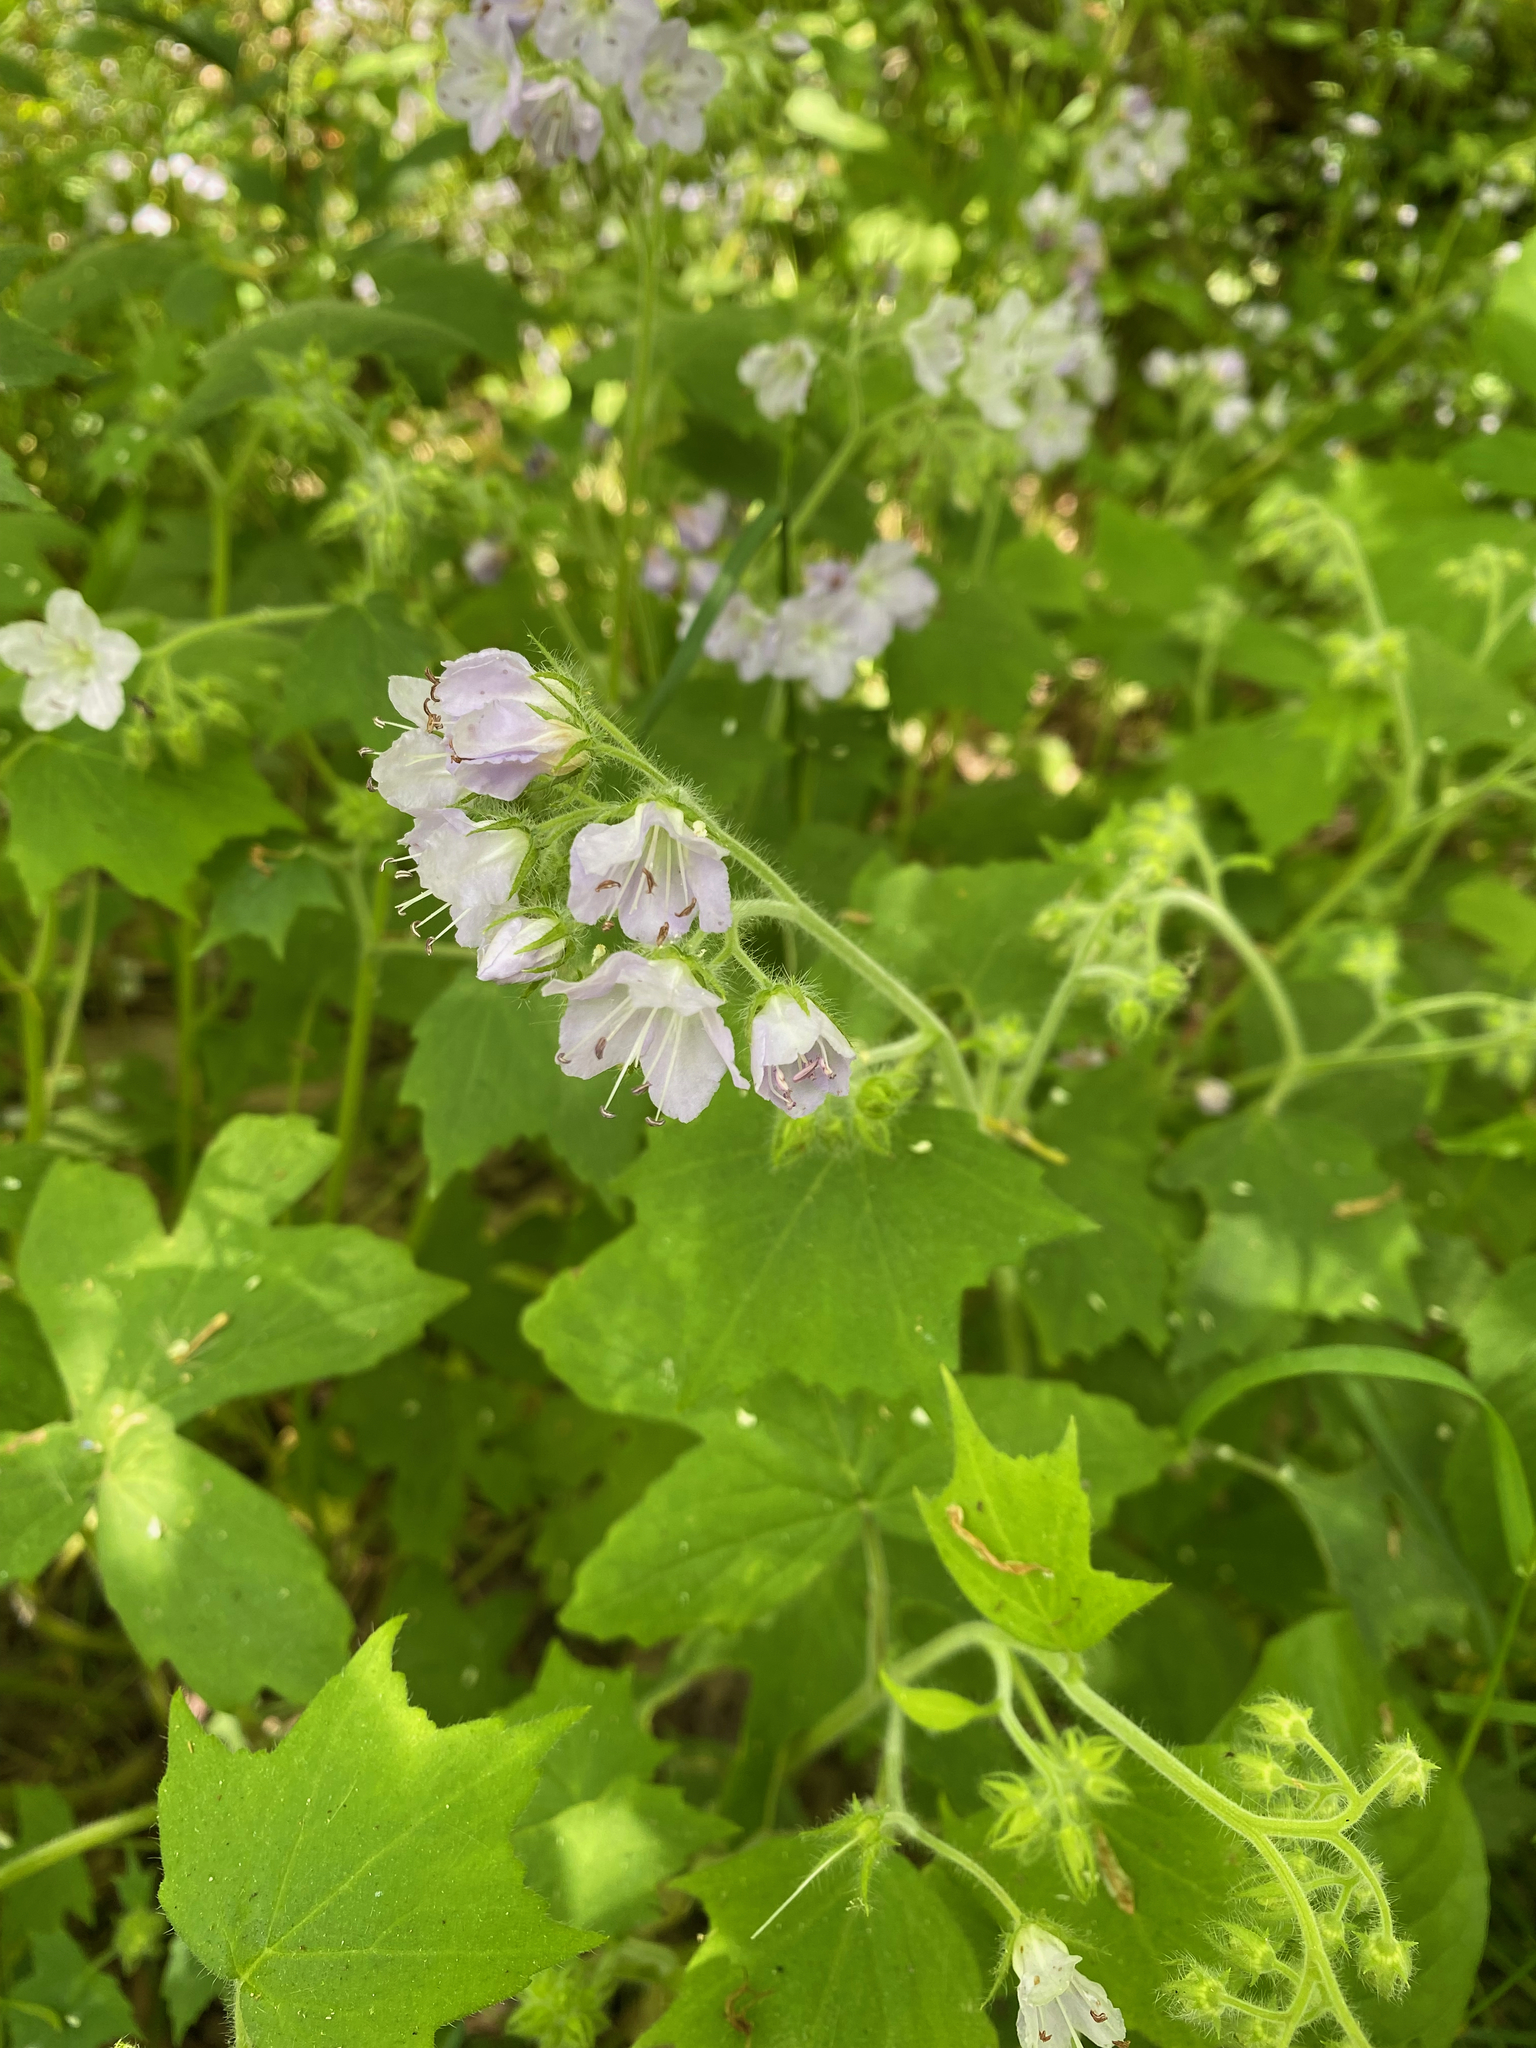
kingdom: Plantae
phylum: Tracheophyta
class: Magnoliopsida
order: Boraginales
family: Hydrophyllaceae
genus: Hydrophyllum
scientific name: Hydrophyllum appendiculatum
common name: Appendaged waterleaf
